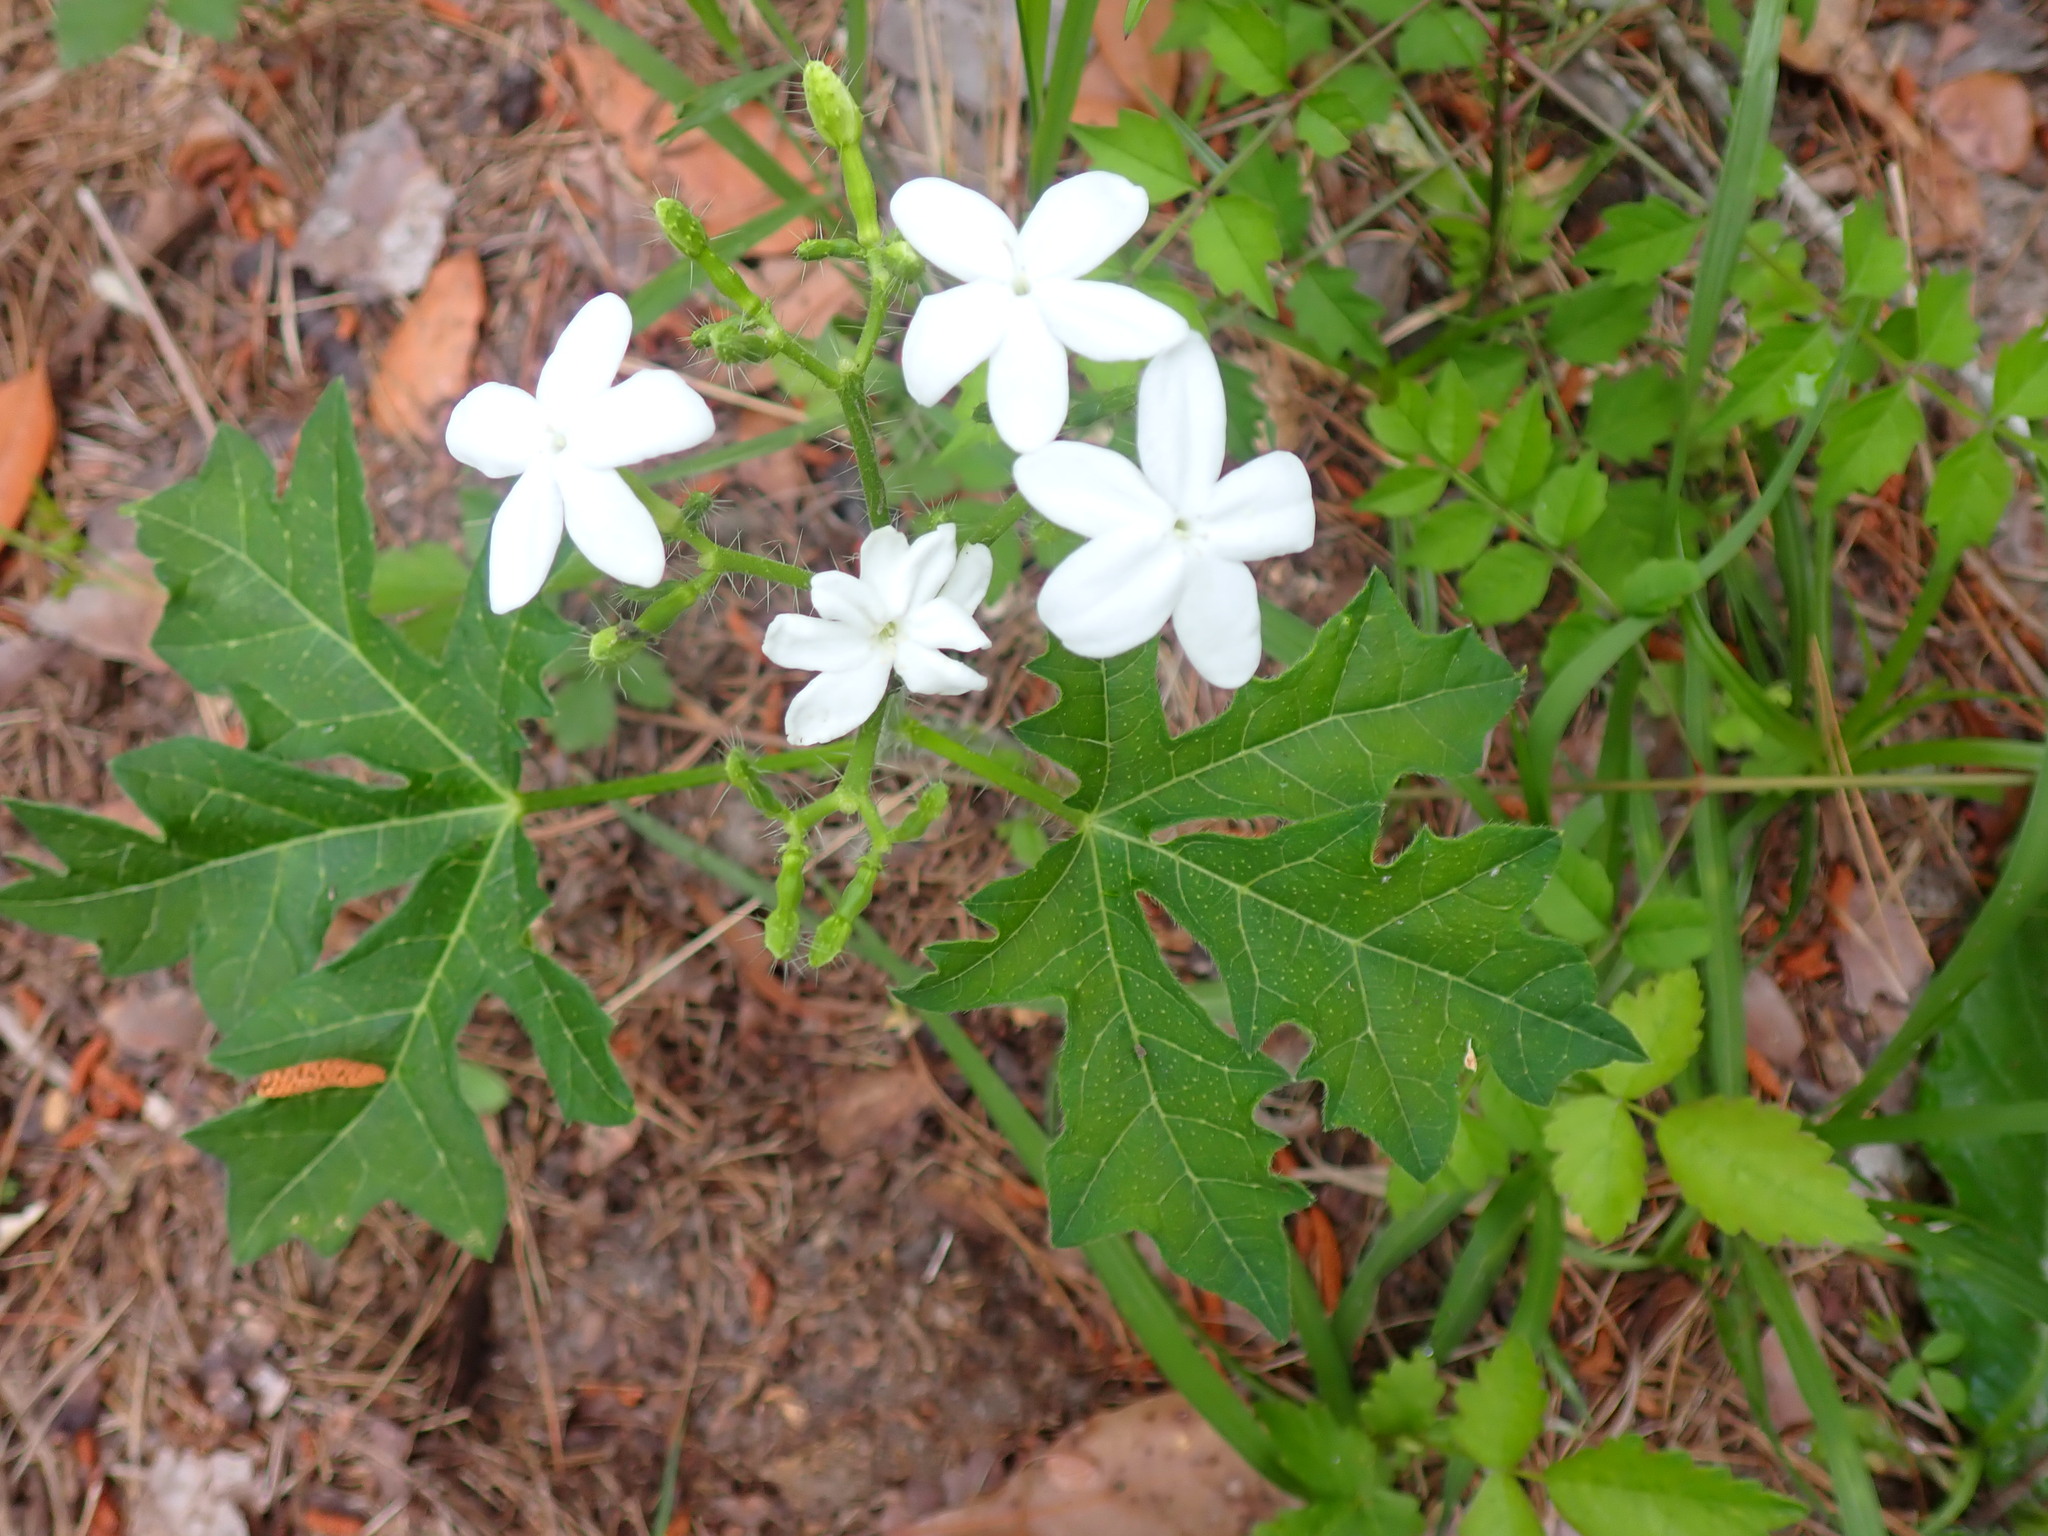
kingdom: Plantae
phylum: Tracheophyta
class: Magnoliopsida
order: Malpighiales
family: Euphorbiaceae
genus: Cnidoscolus
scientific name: Cnidoscolus stimulosus
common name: Bull-nettle
